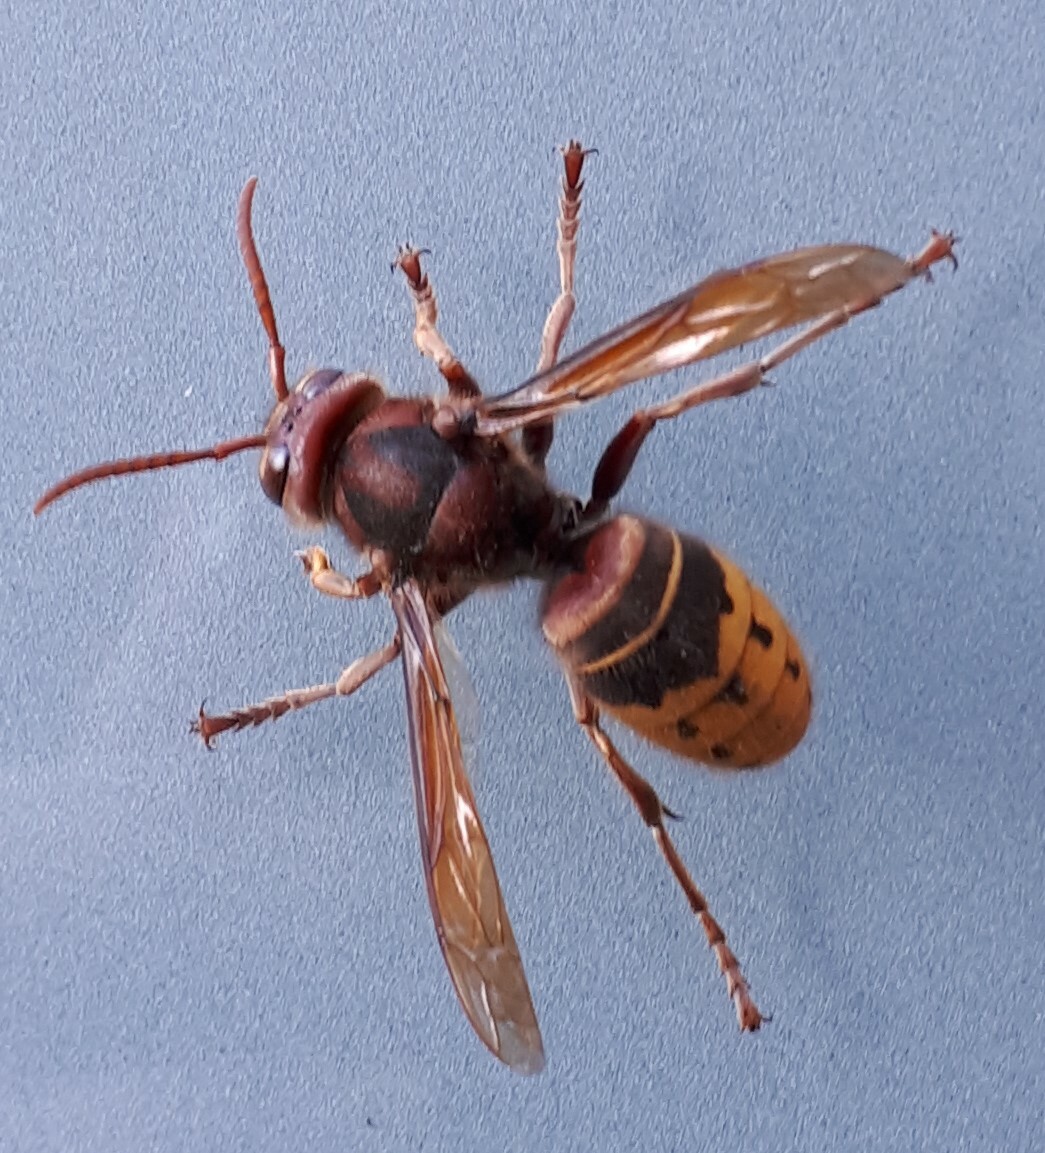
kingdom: Animalia
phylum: Arthropoda
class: Insecta
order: Hymenoptera
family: Vespidae
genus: Vespa
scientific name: Vespa crabro
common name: Hornet
